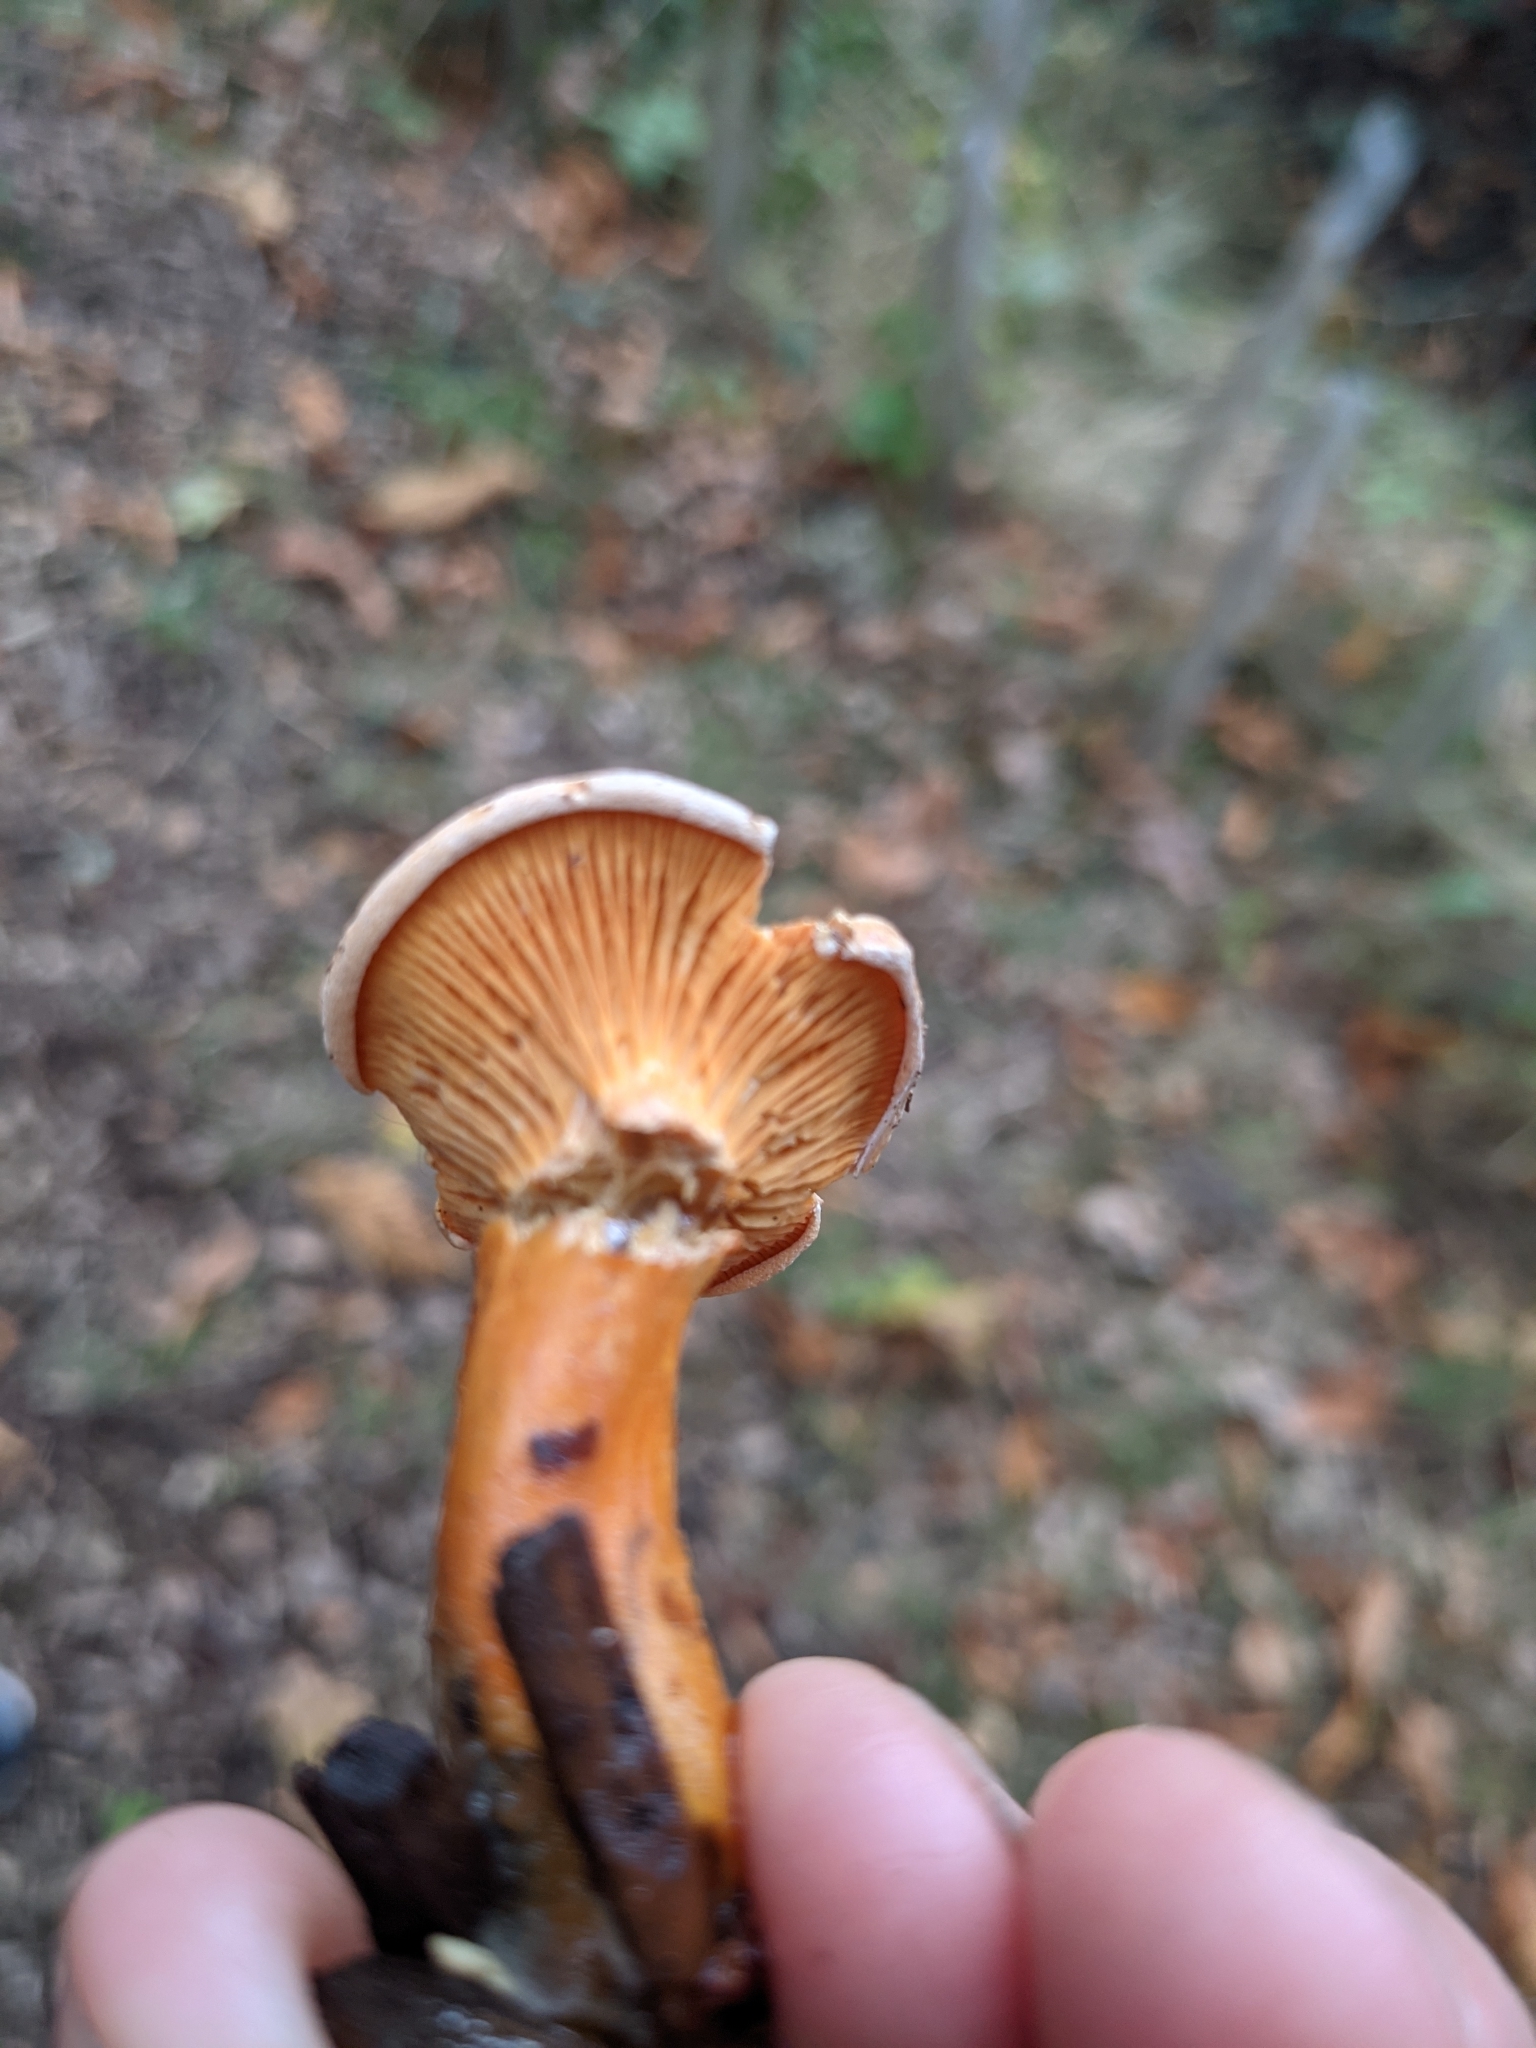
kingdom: Fungi
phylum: Basidiomycota
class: Agaricomycetes
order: Boletales
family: Hygrophoropsidaceae
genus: Hygrophoropsis
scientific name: Hygrophoropsis aurantiaca
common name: False chanterelle
